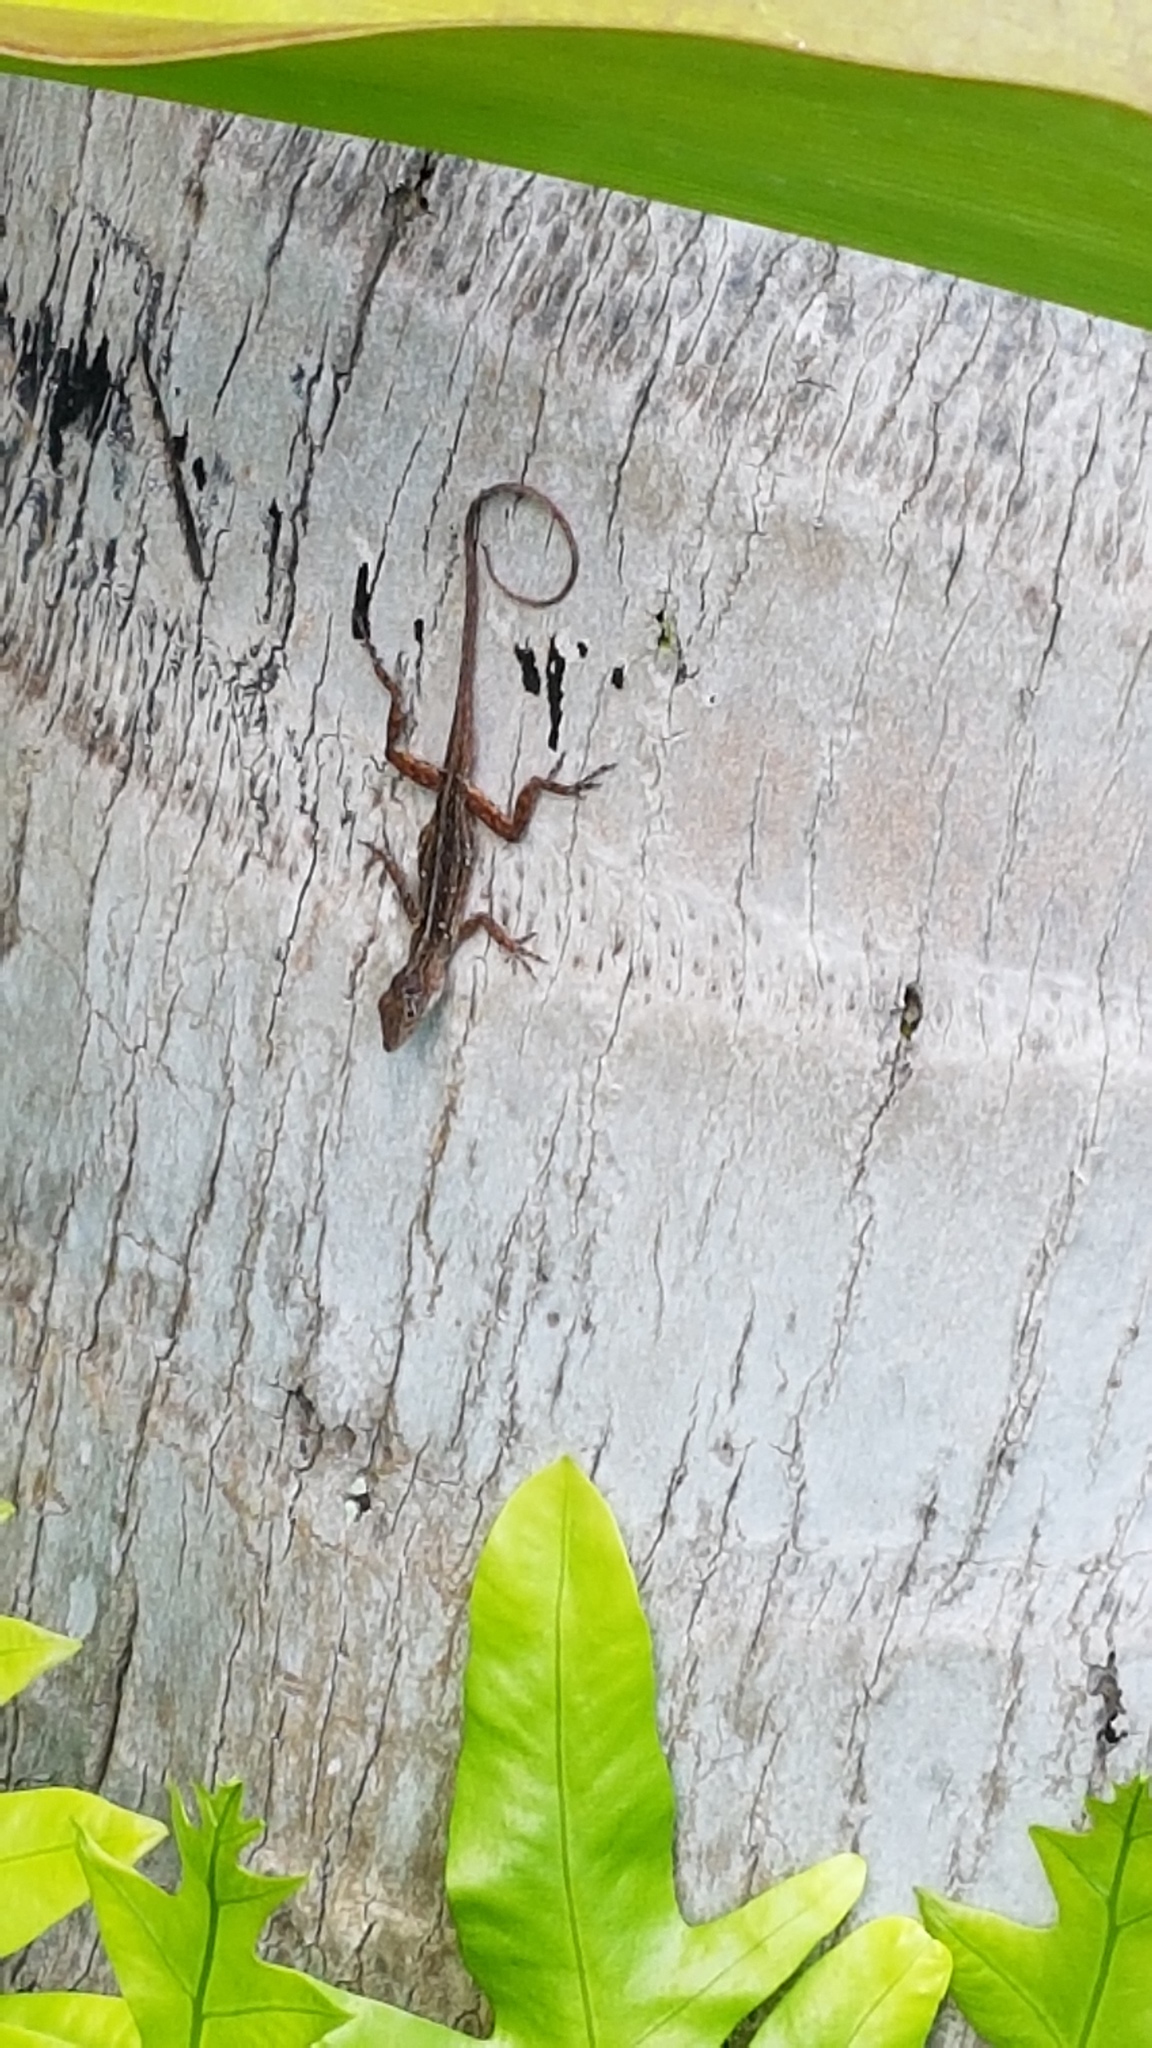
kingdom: Animalia
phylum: Chordata
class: Squamata
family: Dactyloidae
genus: Anolis
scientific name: Anolis sagrei
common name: Brown anole
